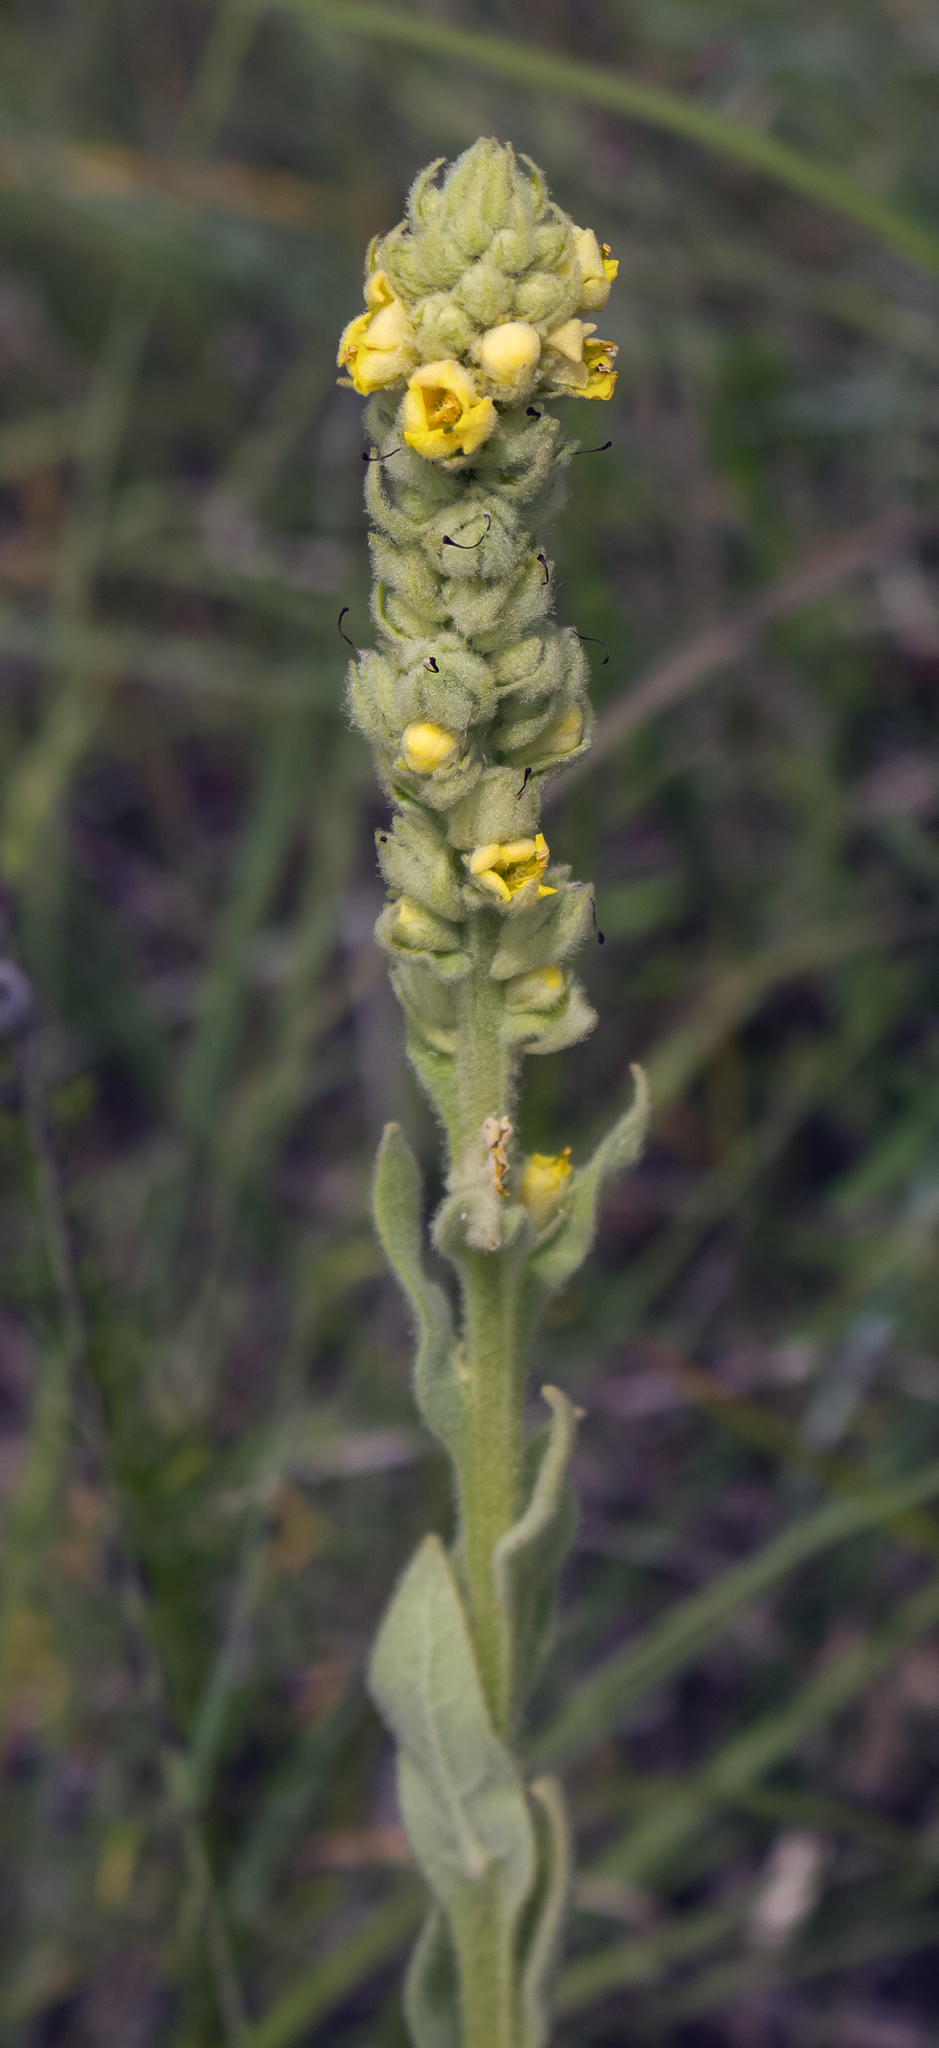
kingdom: Plantae
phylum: Tracheophyta
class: Magnoliopsida
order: Lamiales
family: Scrophulariaceae
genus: Verbascum
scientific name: Verbascum thapsus
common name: Common mullein
